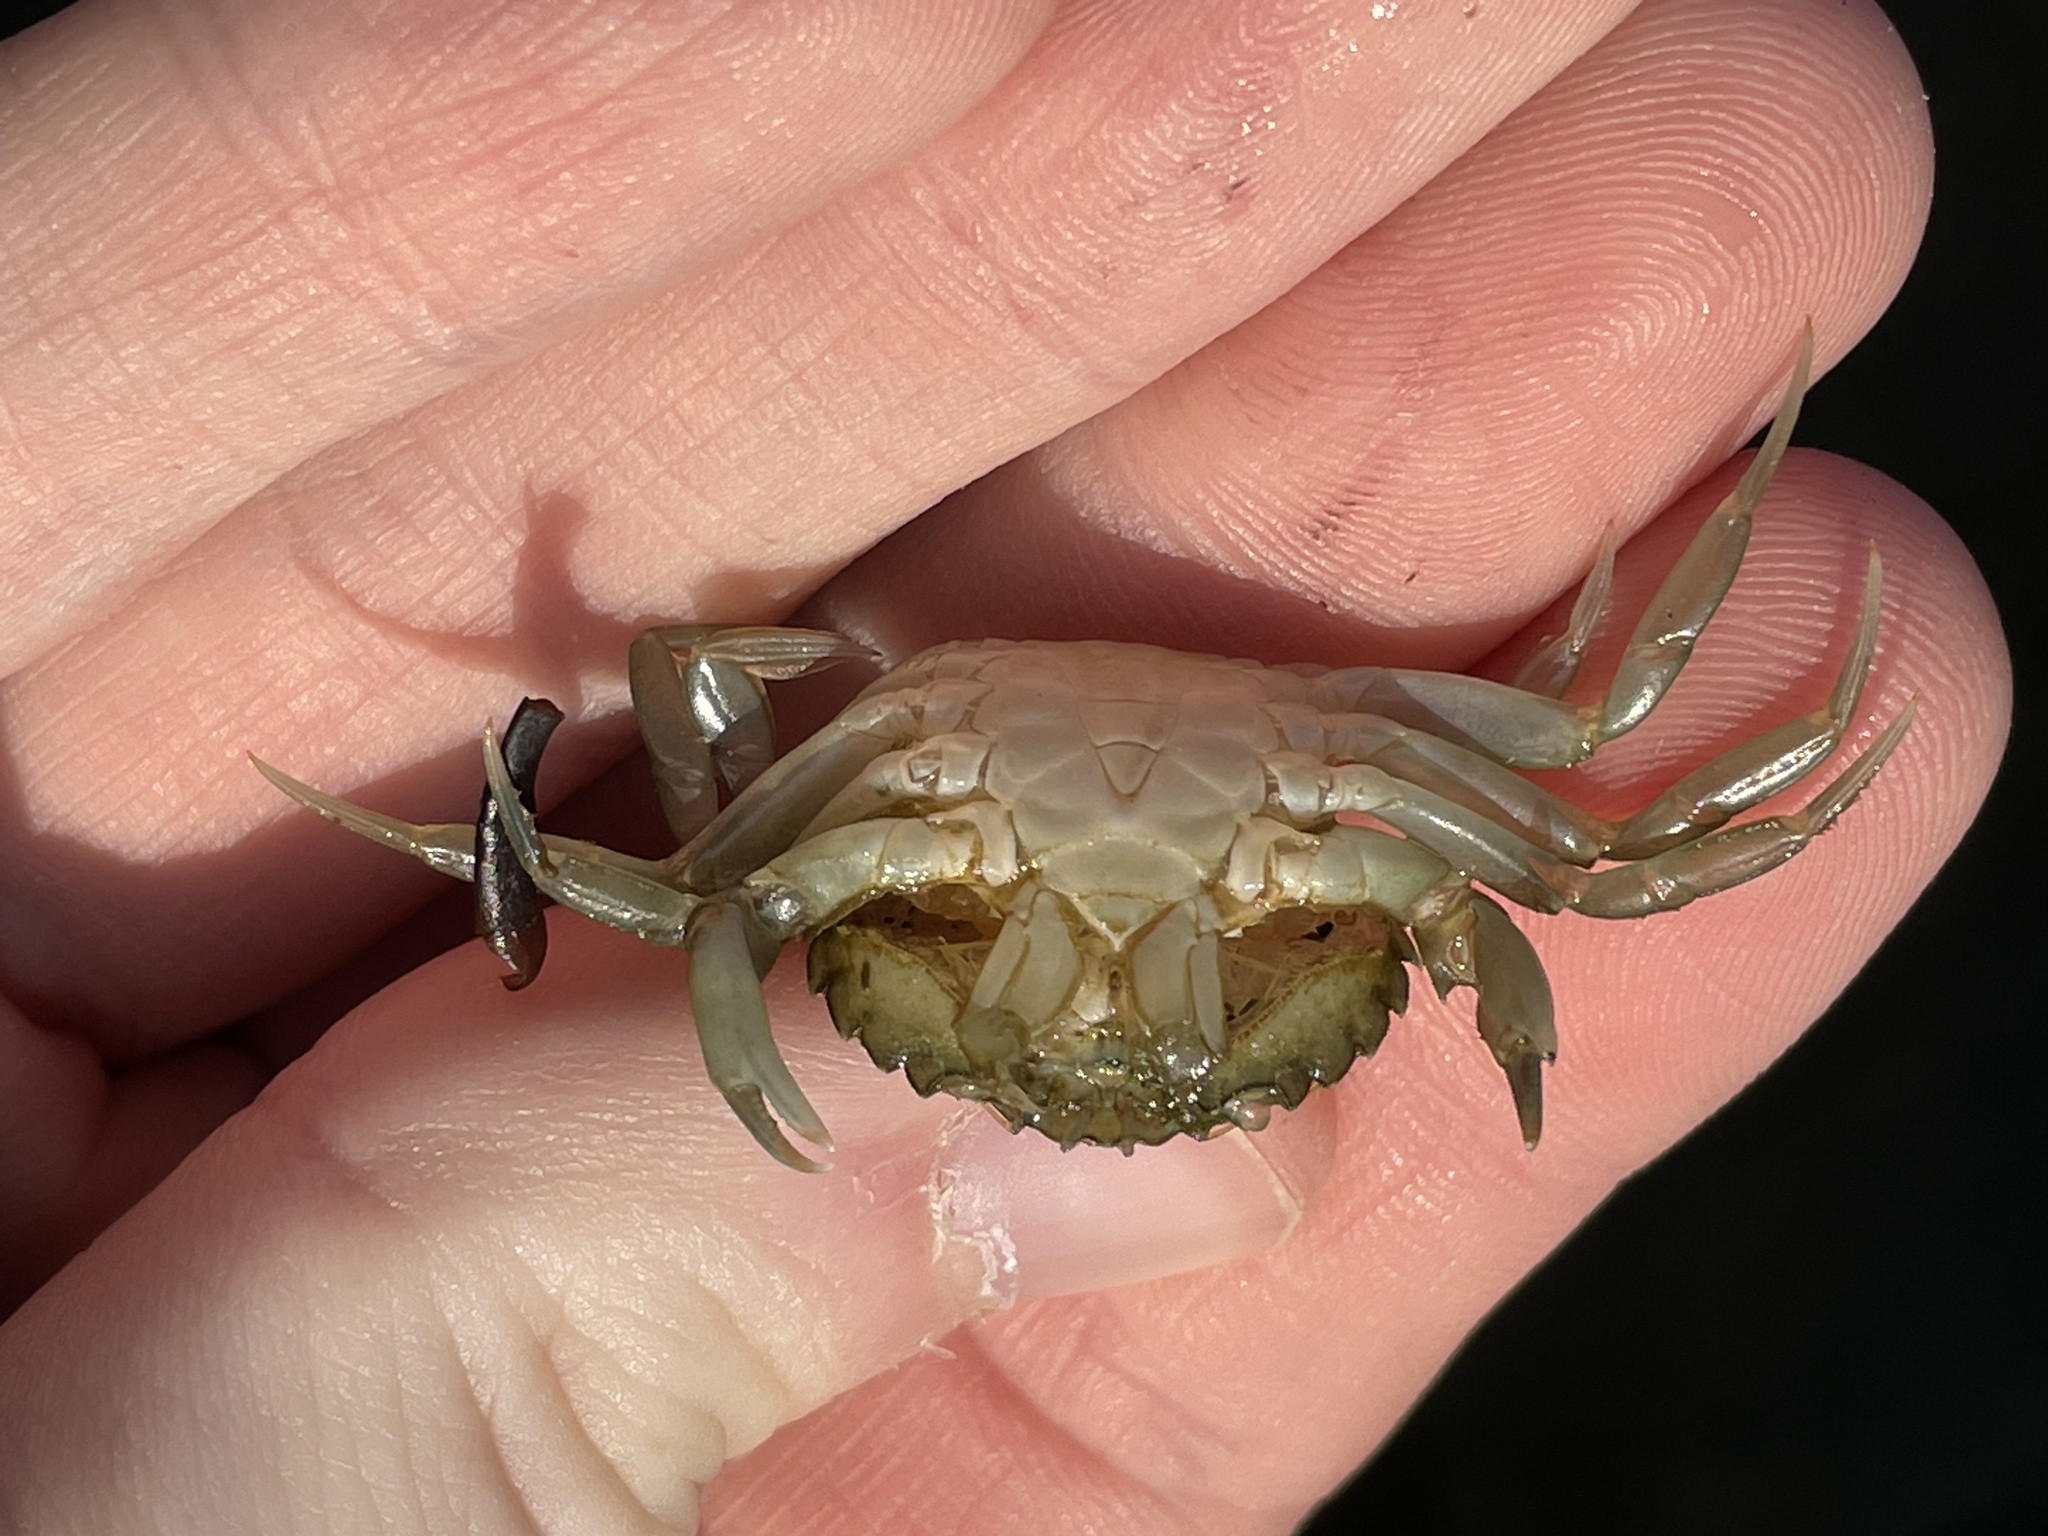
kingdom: Animalia
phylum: Arthropoda
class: Malacostraca
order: Decapoda
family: Carcinidae
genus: Carcinus
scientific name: Carcinus maenas
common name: European green crab
